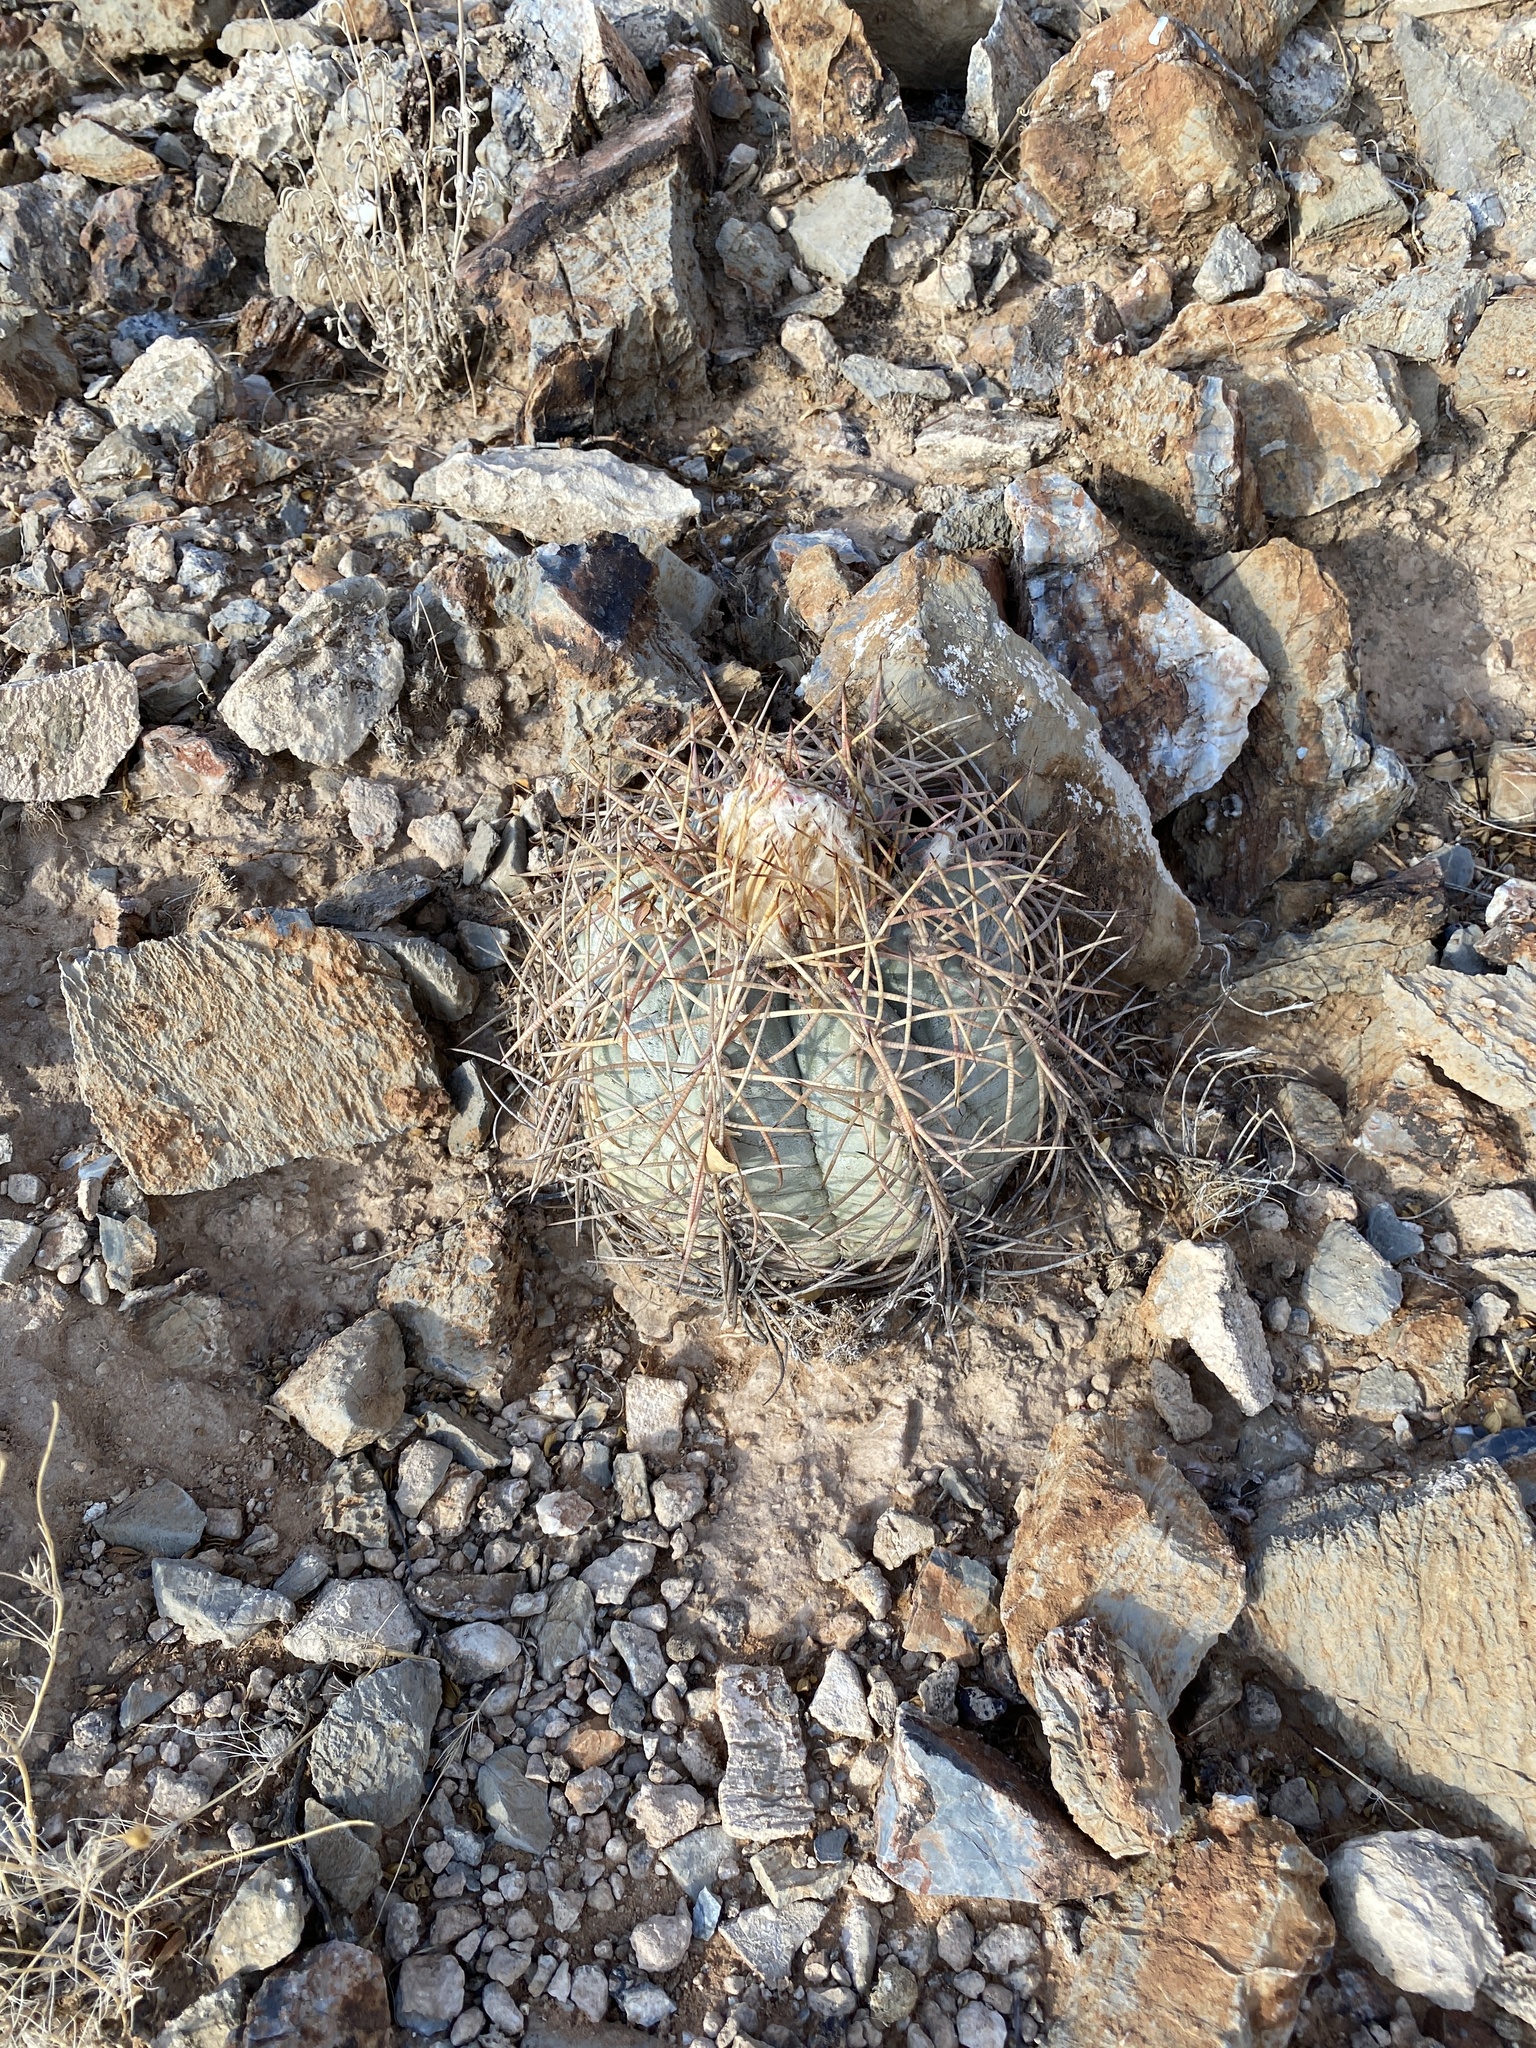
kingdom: Plantae
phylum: Tracheophyta
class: Magnoliopsida
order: Caryophyllales
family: Cactaceae
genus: Echinocactus
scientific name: Echinocactus horizonthalonius
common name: Devilshead
